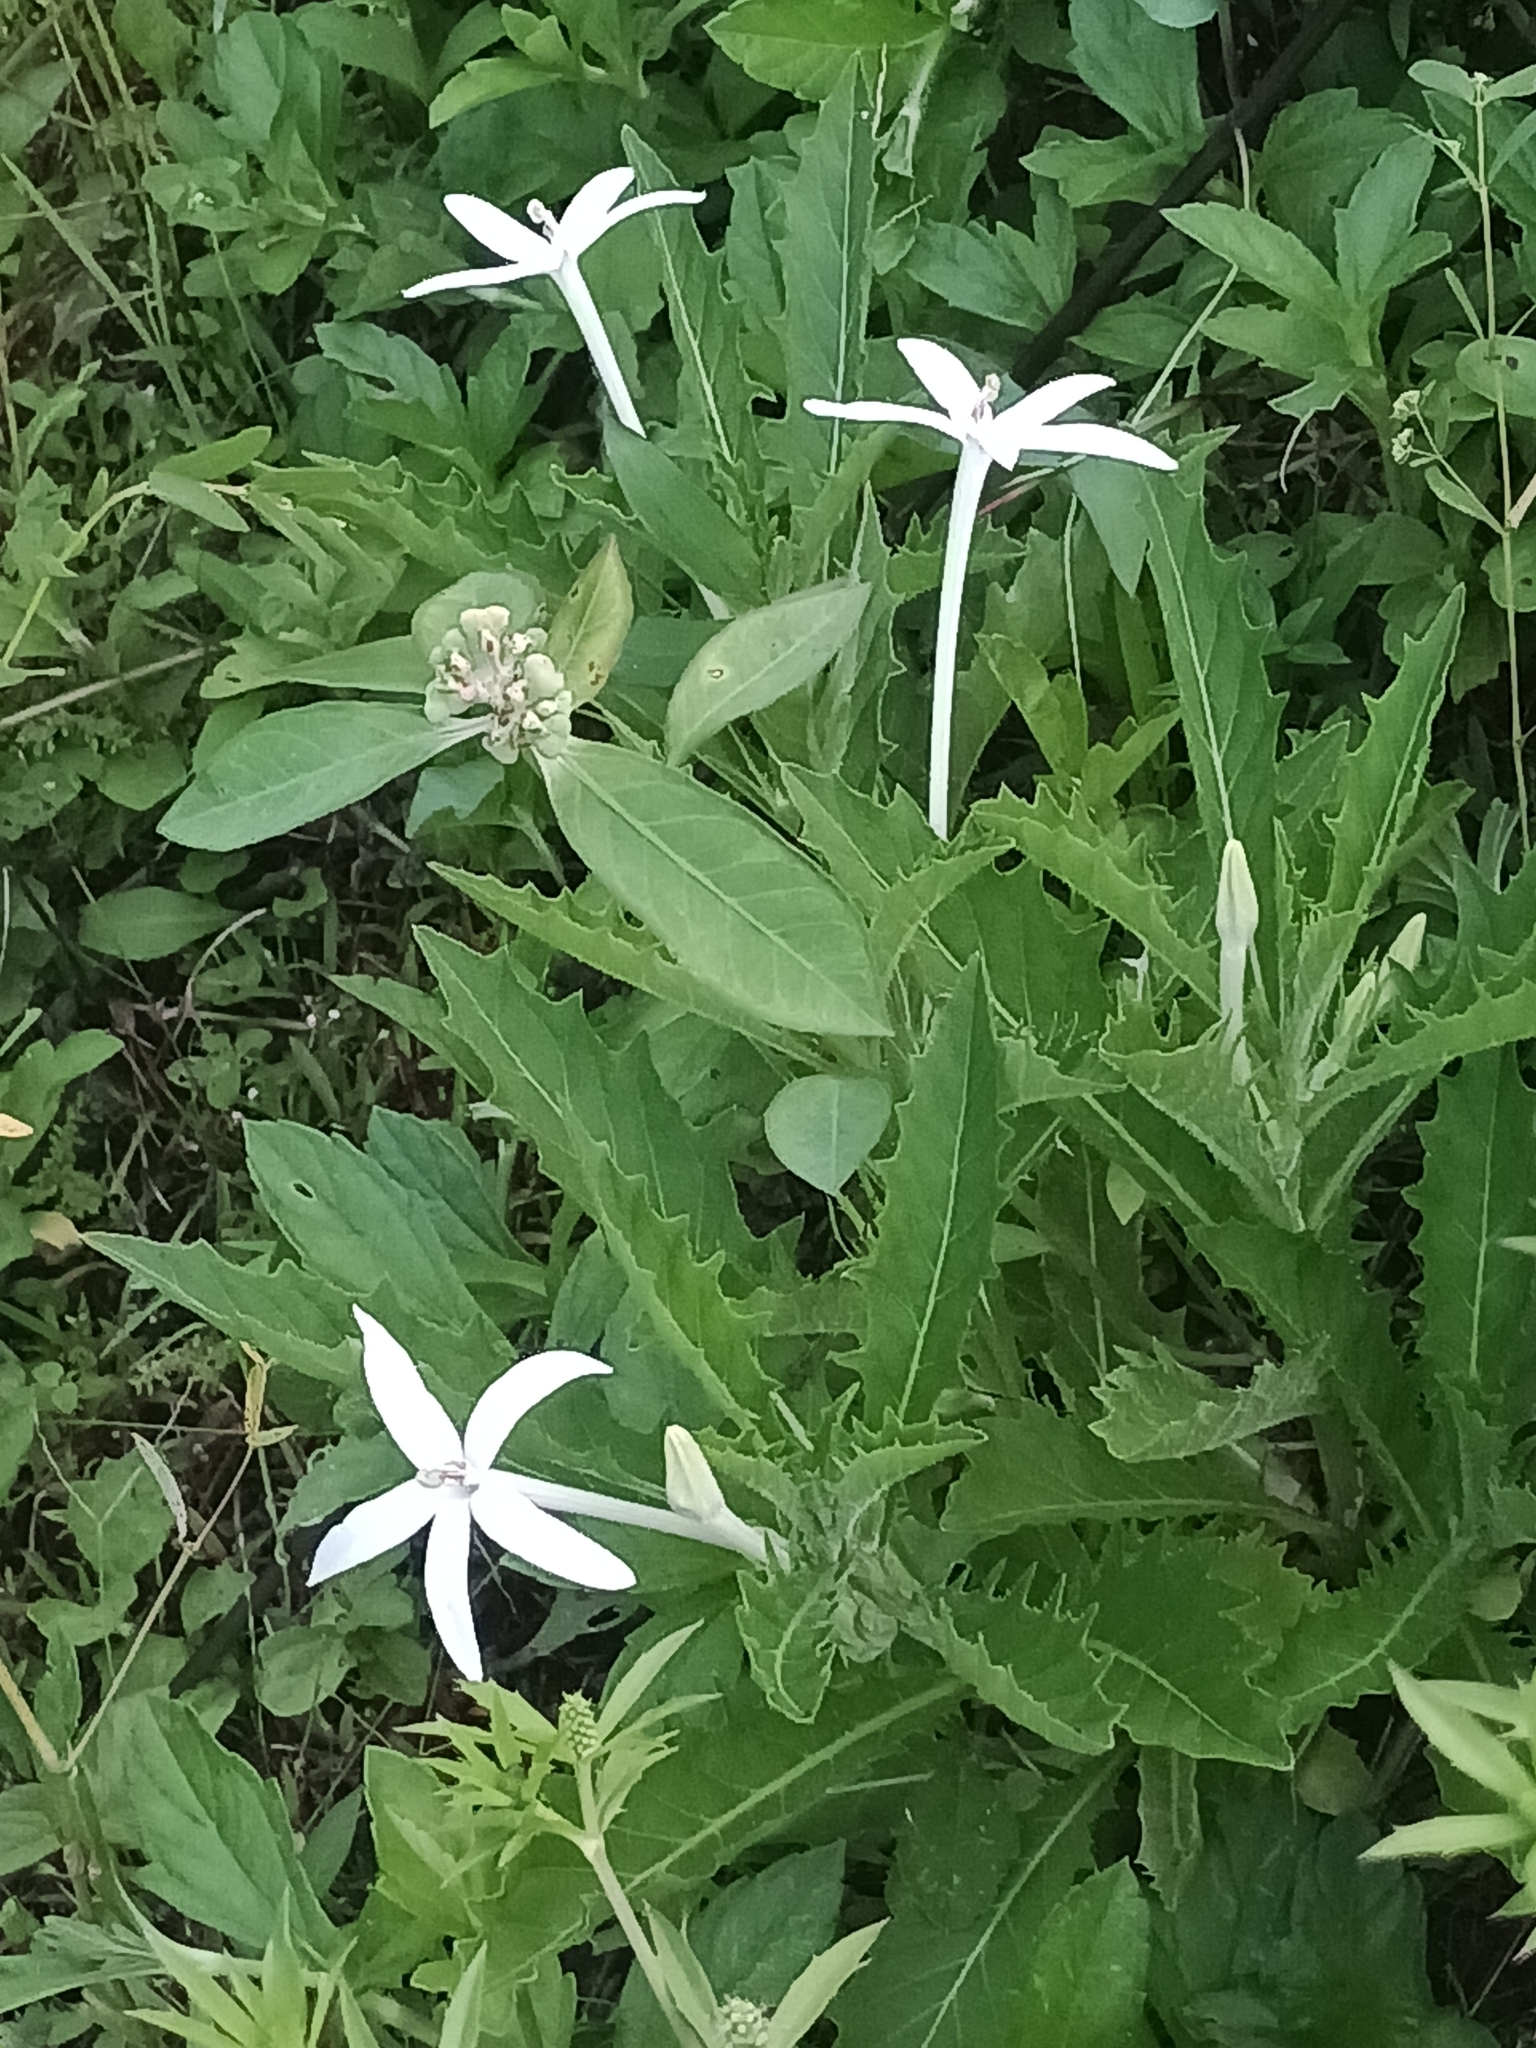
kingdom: Plantae
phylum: Tracheophyta
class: Magnoliopsida
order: Asterales
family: Campanulaceae
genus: Hippobroma
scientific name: Hippobroma longiflora
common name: Madamfate
